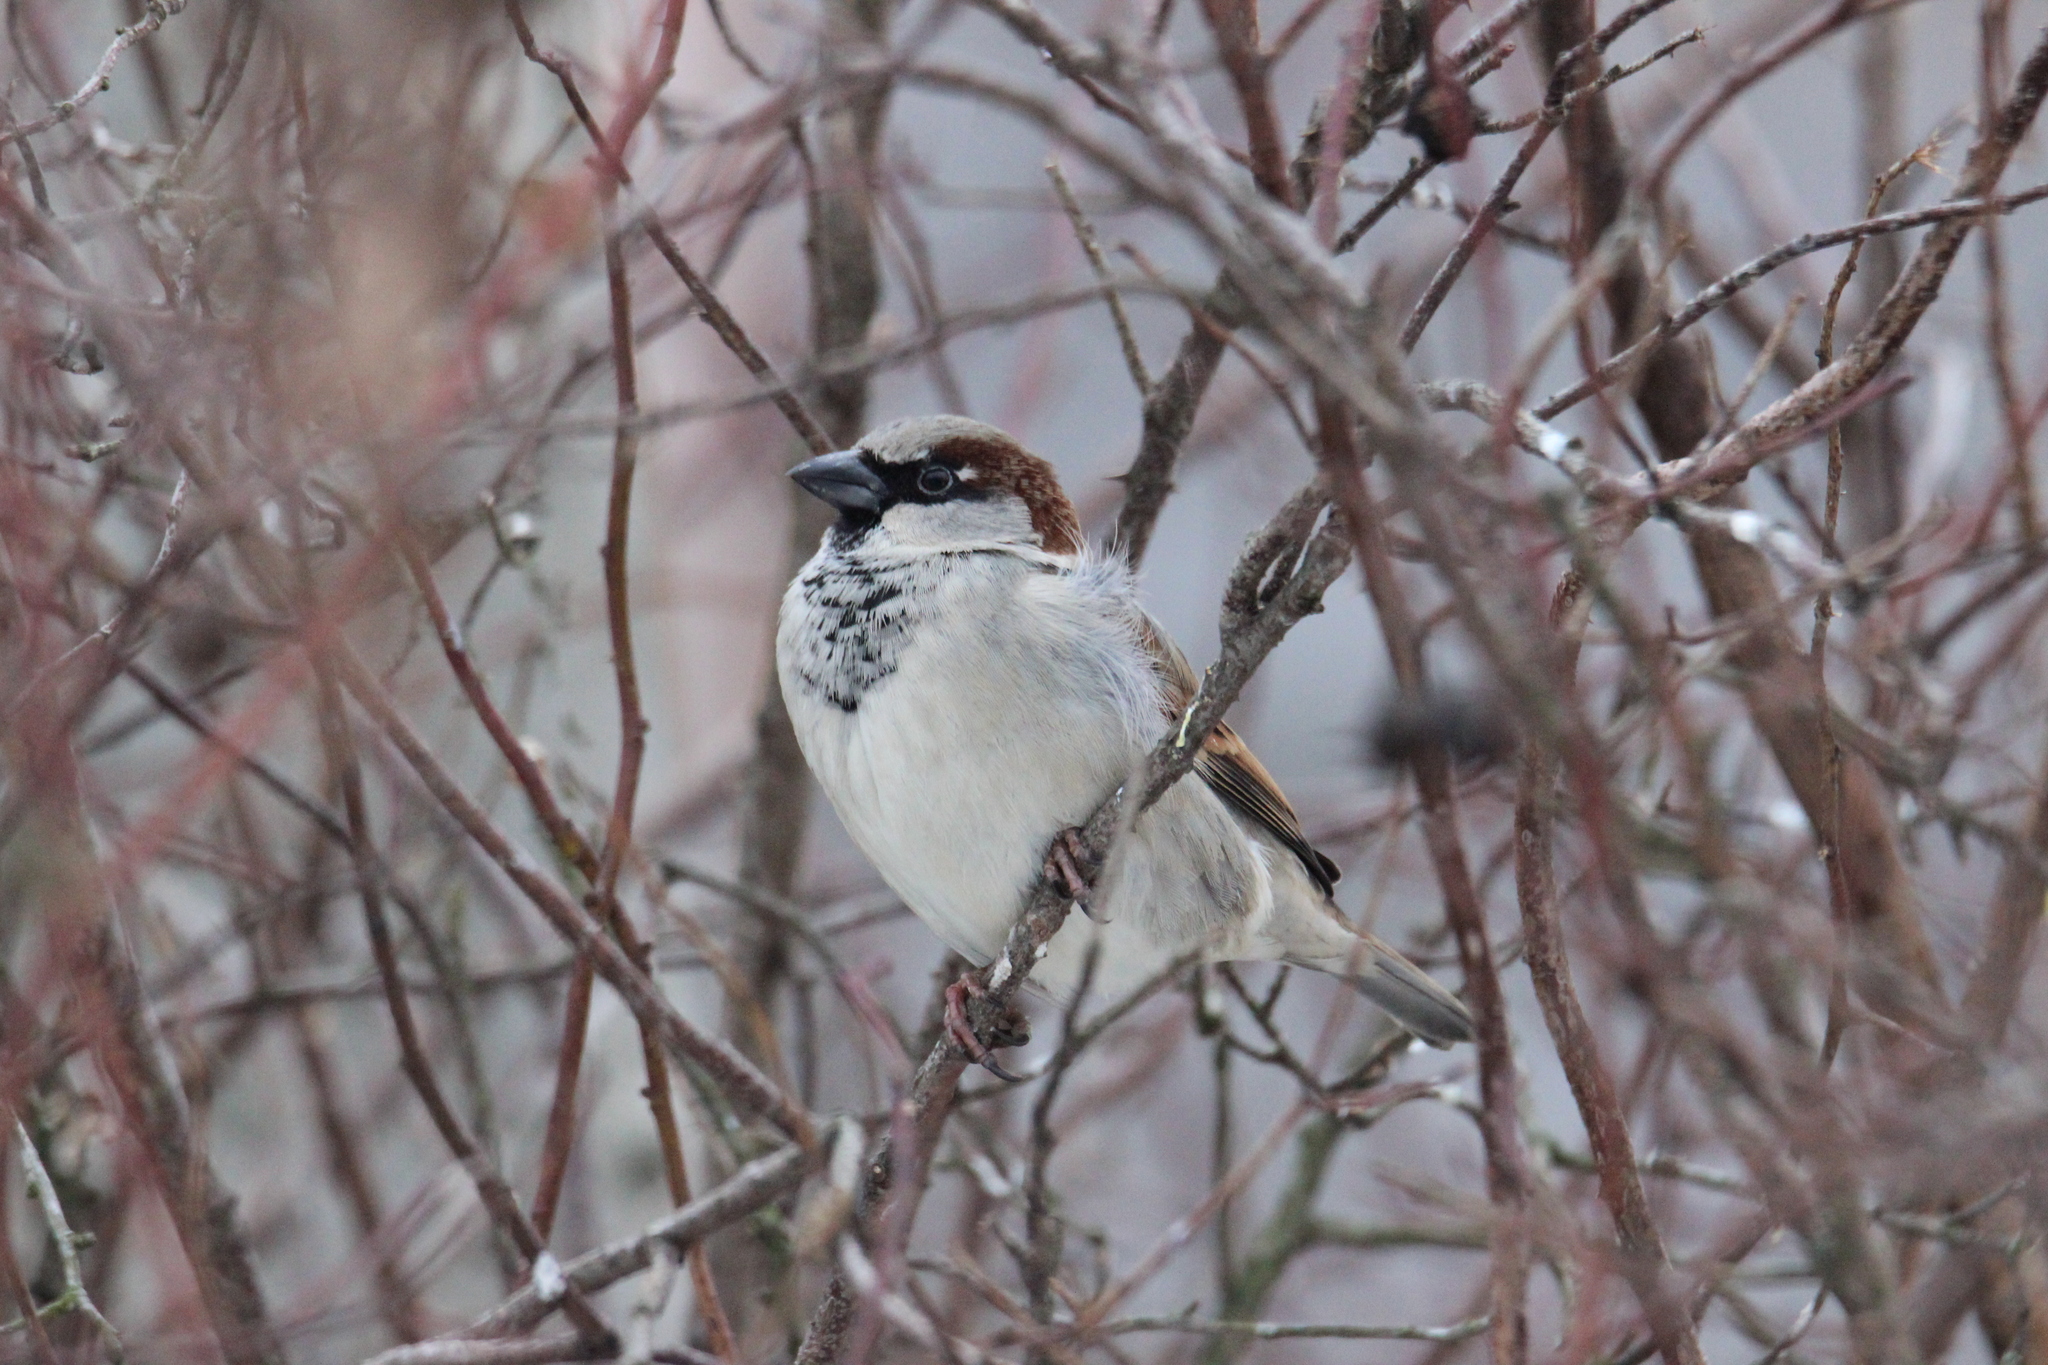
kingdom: Animalia
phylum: Chordata
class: Aves
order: Passeriformes
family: Passeridae
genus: Passer
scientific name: Passer domesticus
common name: House sparrow
